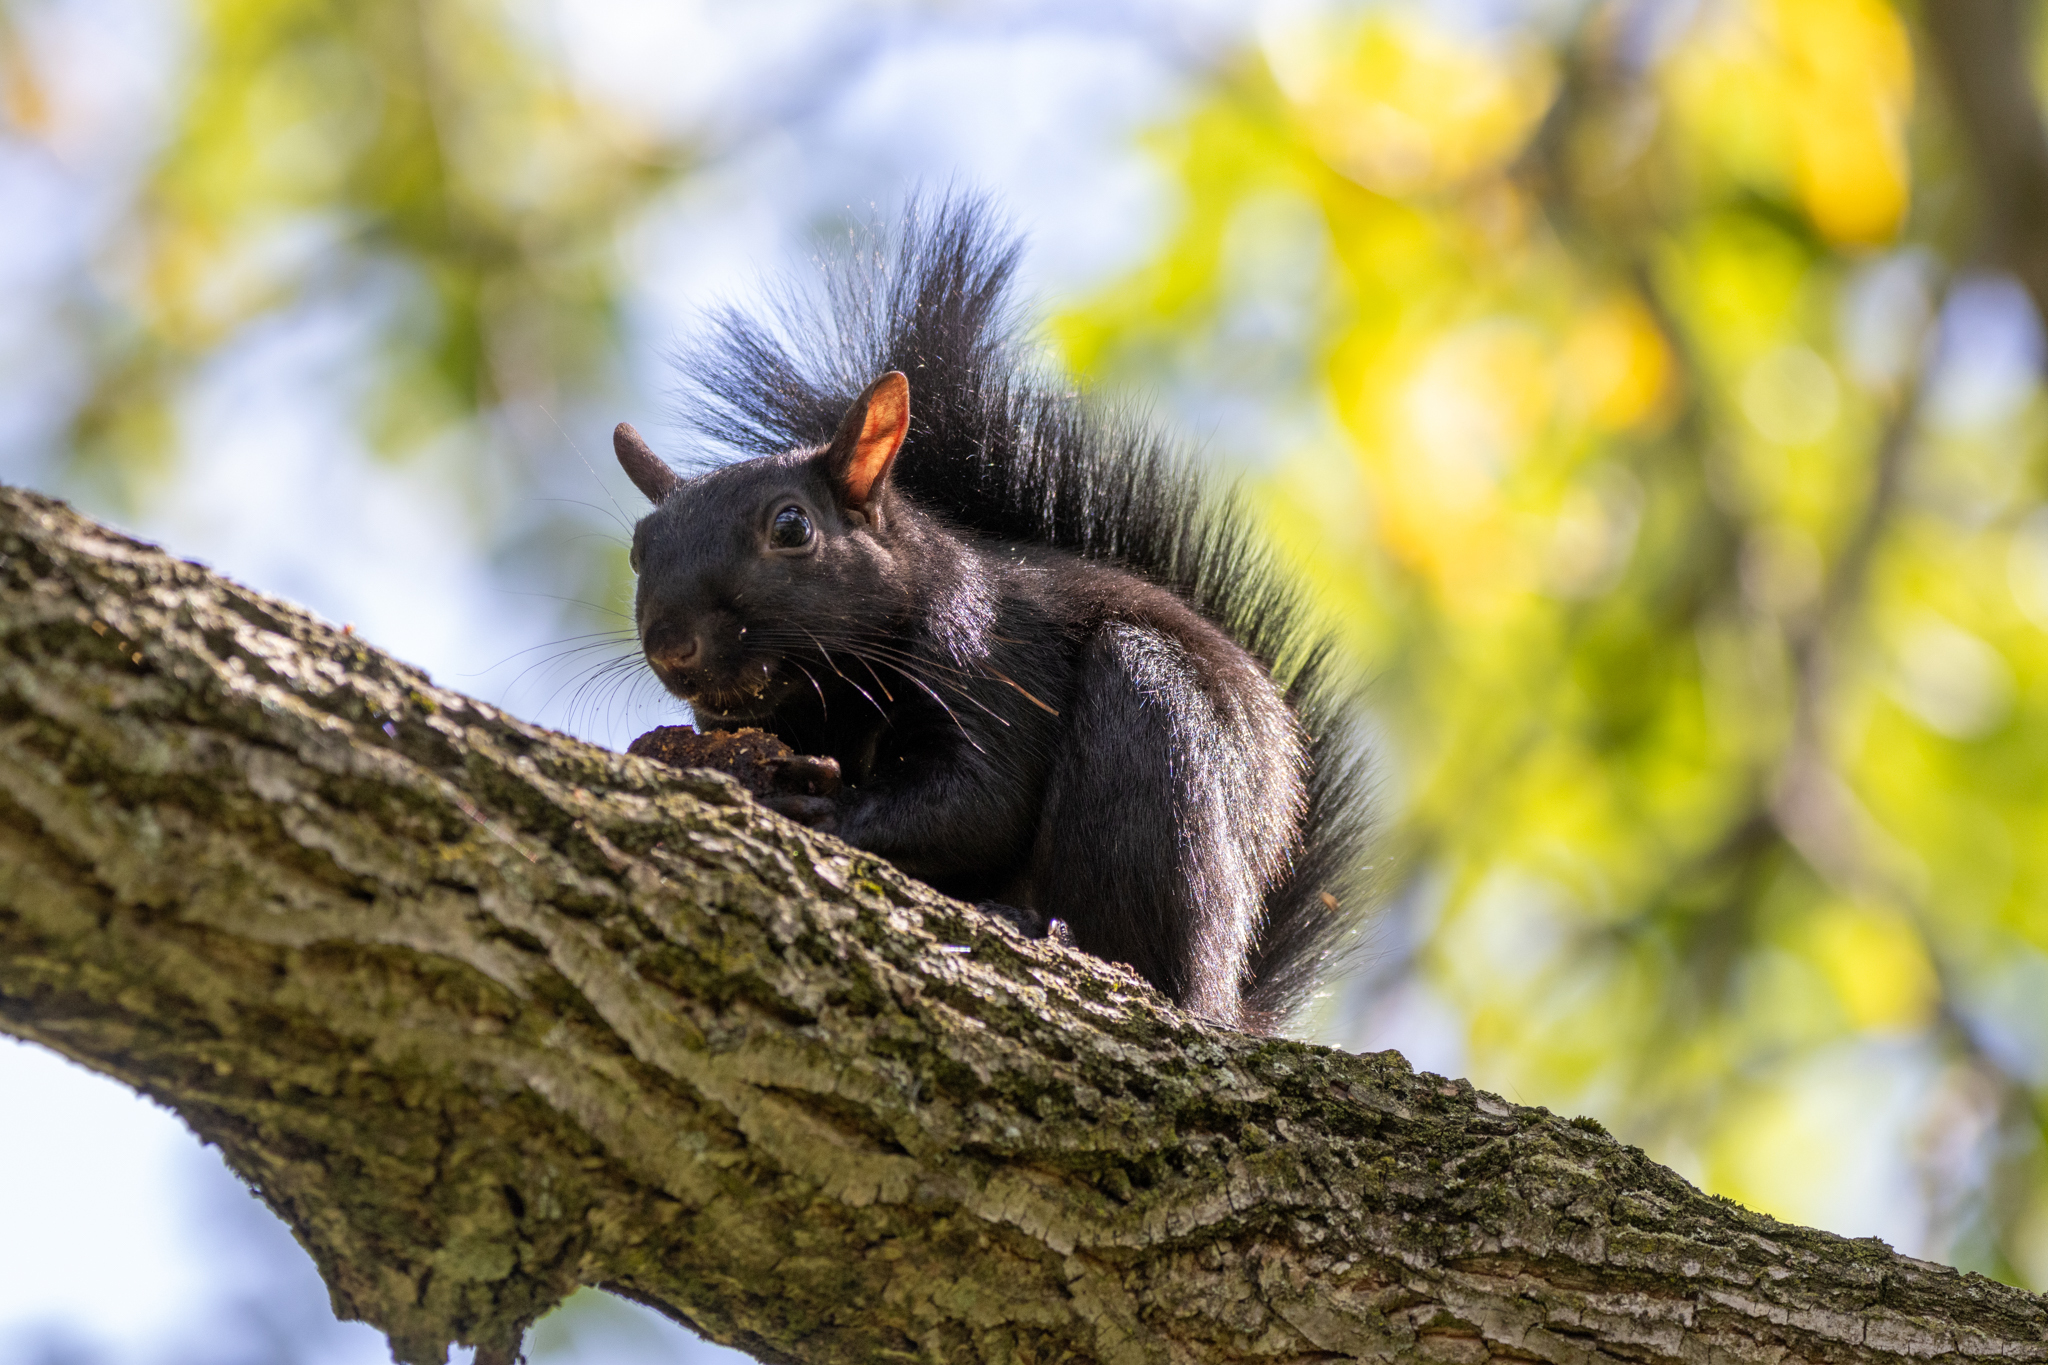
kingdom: Animalia
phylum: Chordata
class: Mammalia
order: Rodentia
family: Sciuridae
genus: Sciurus
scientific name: Sciurus carolinensis
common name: Eastern gray squirrel
